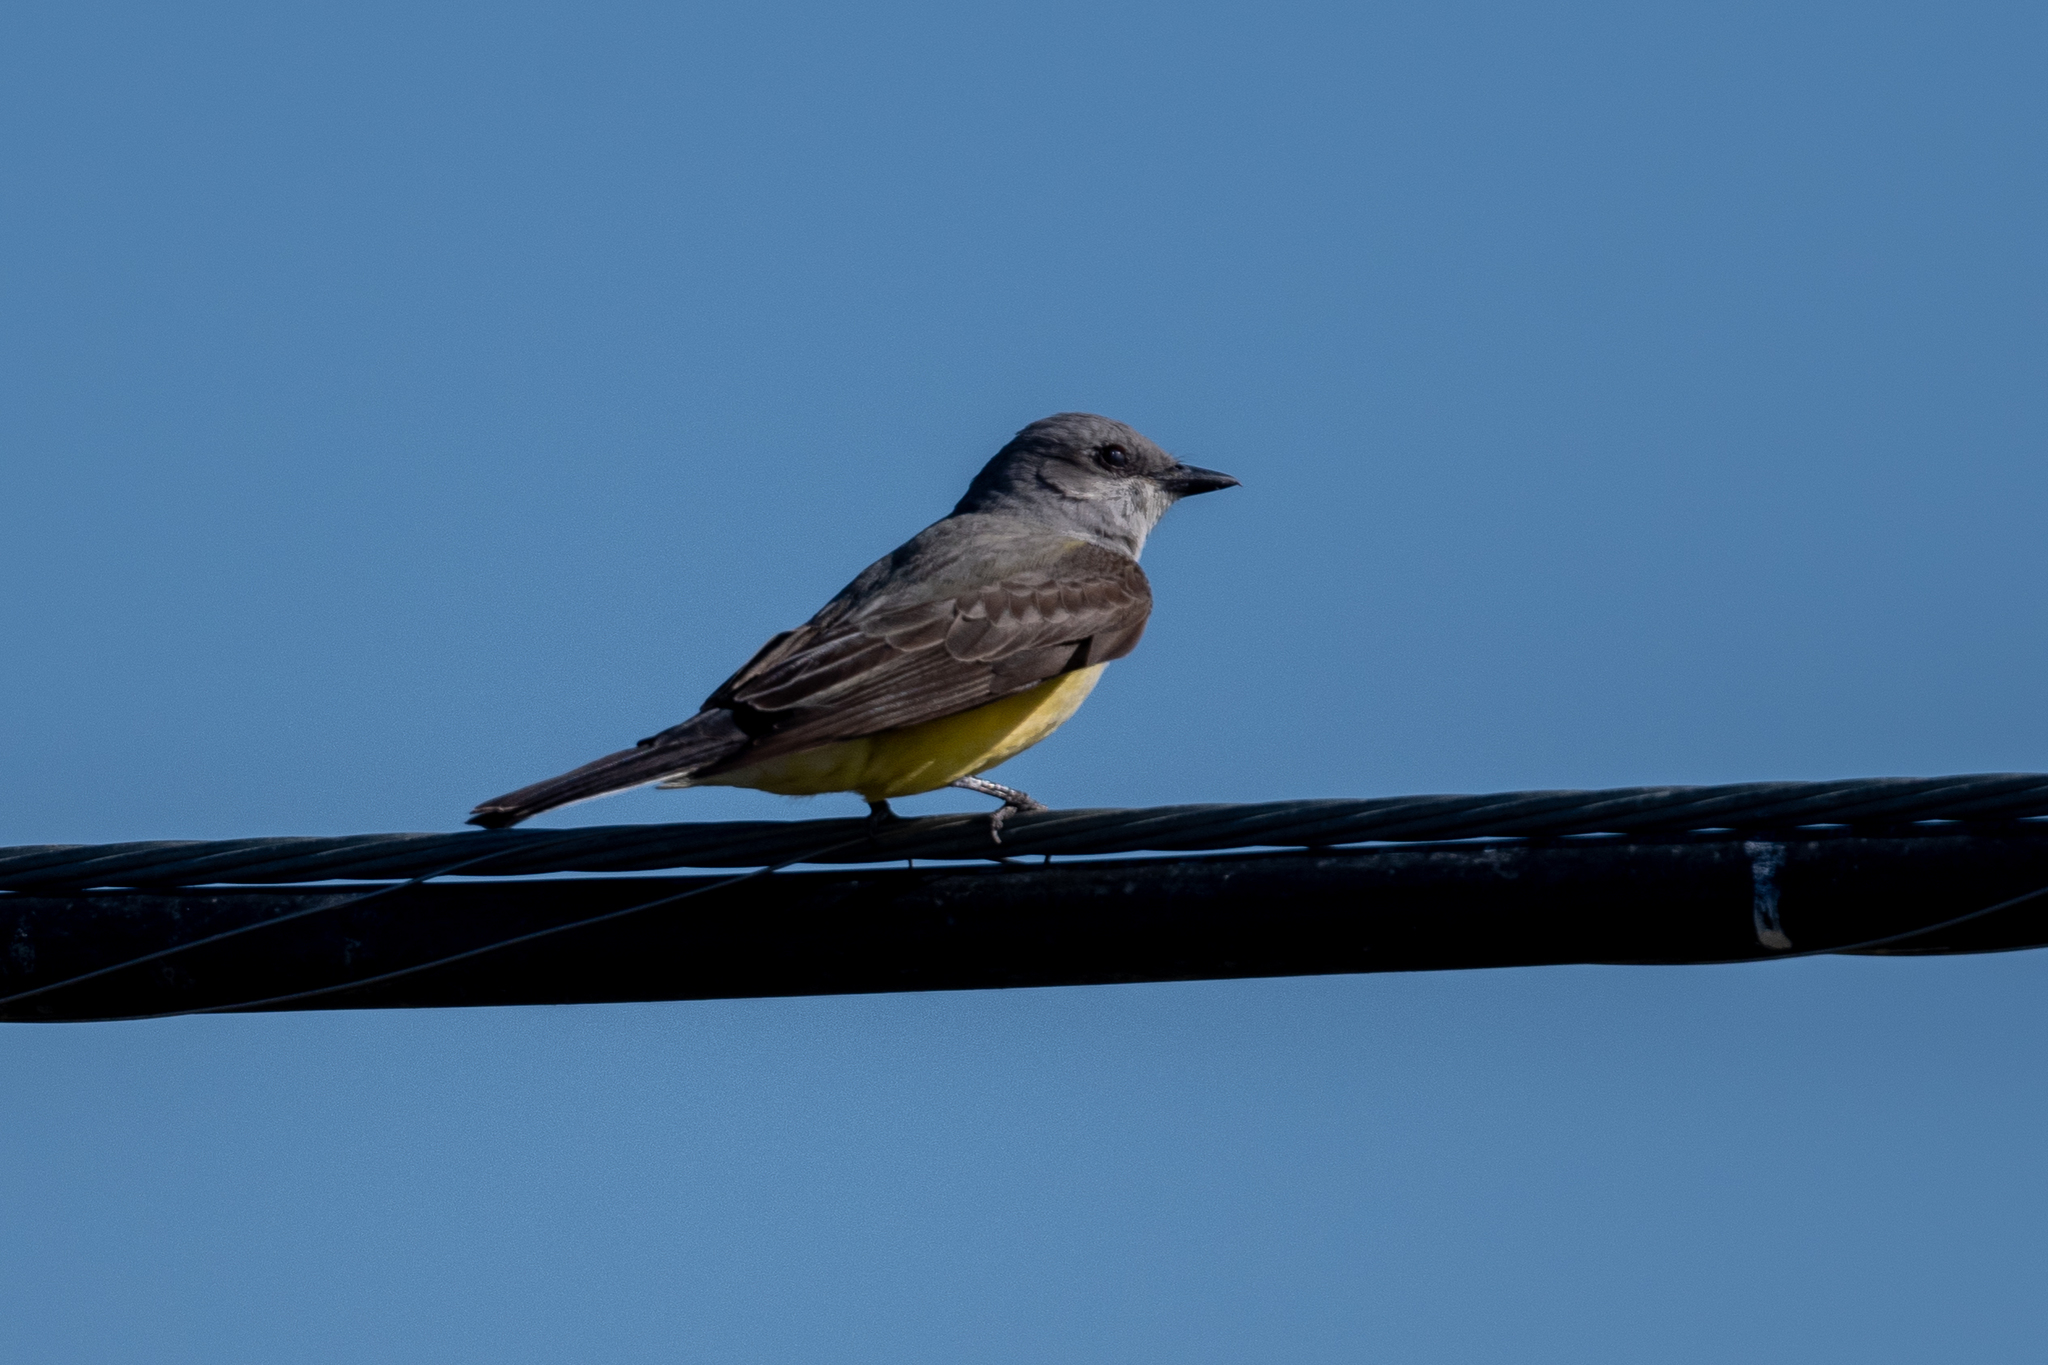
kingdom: Animalia
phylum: Chordata
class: Aves
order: Passeriformes
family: Tyrannidae
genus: Tyrannus
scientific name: Tyrannus verticalis
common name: Western kingbird
